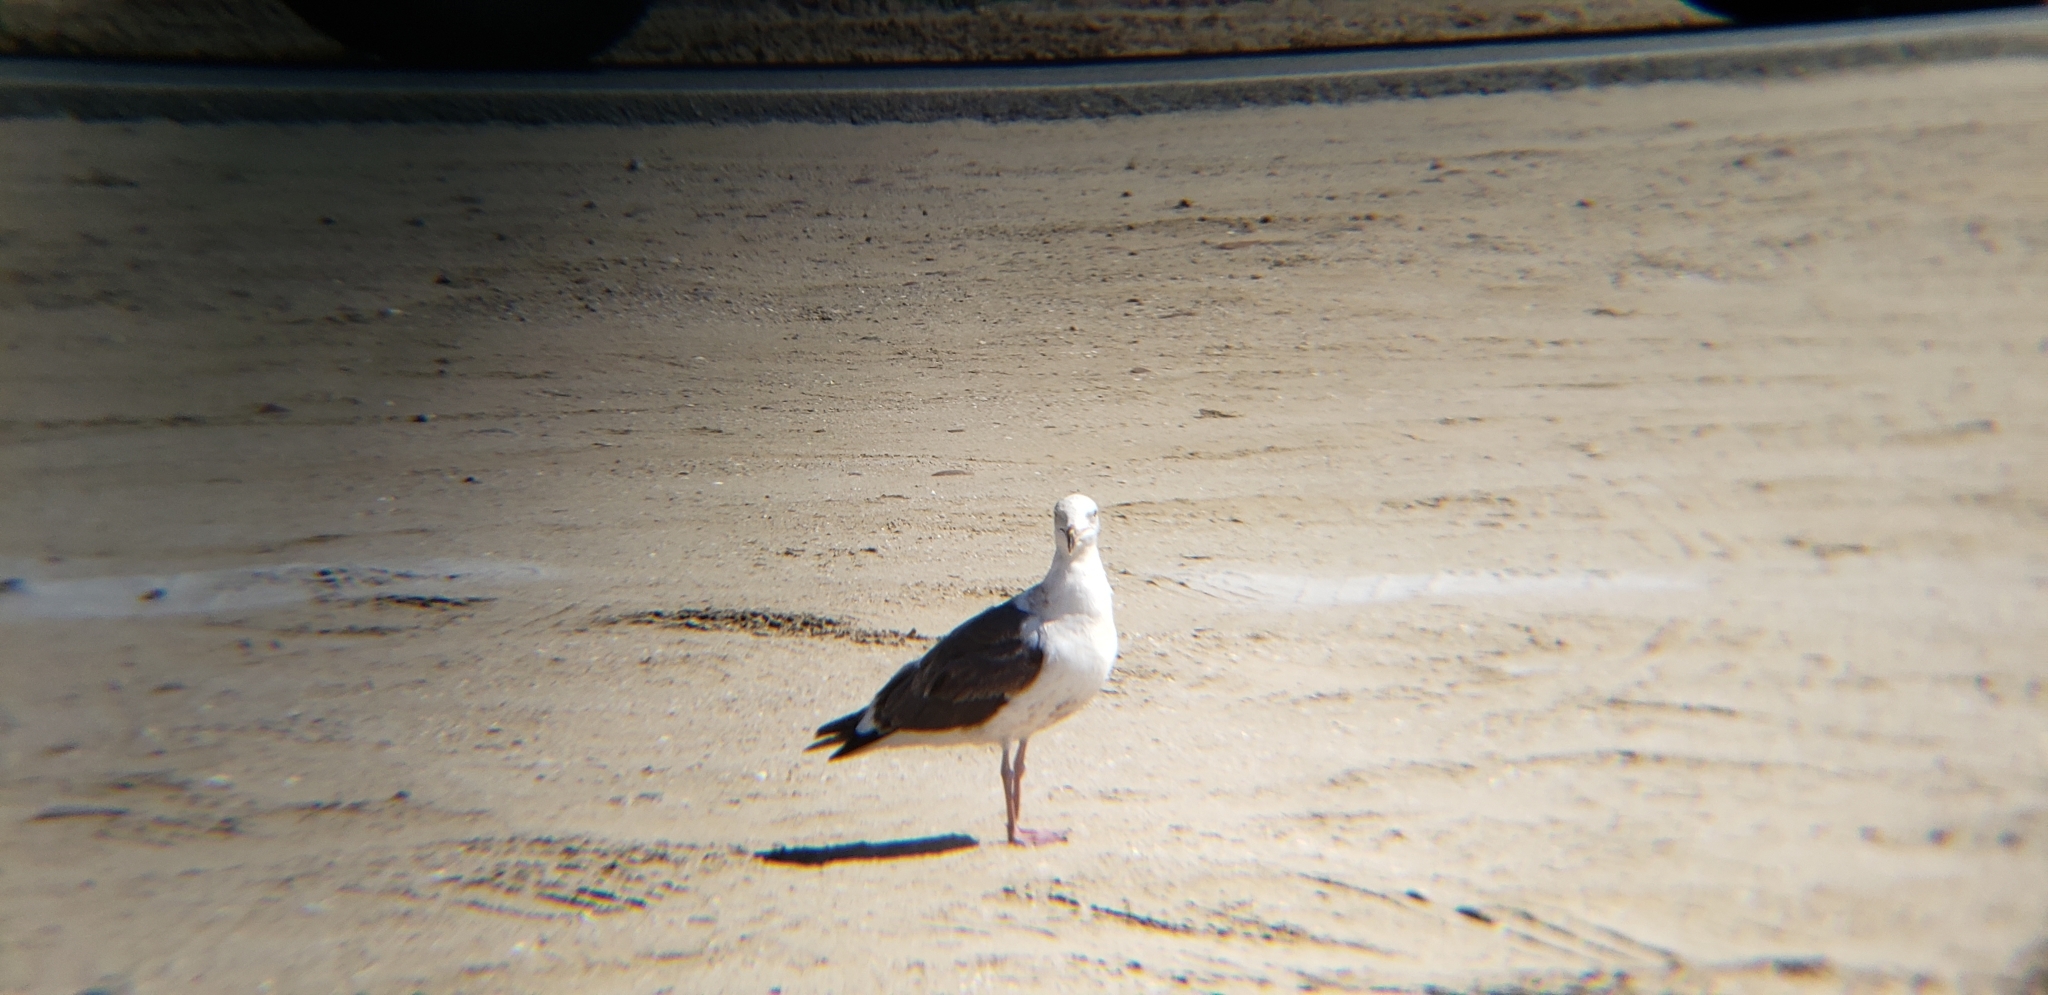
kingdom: Animalia
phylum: Chordata
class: Aves
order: Charadriiformes
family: Laridae
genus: Larus
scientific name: Larus occidentalis
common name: Western gull
